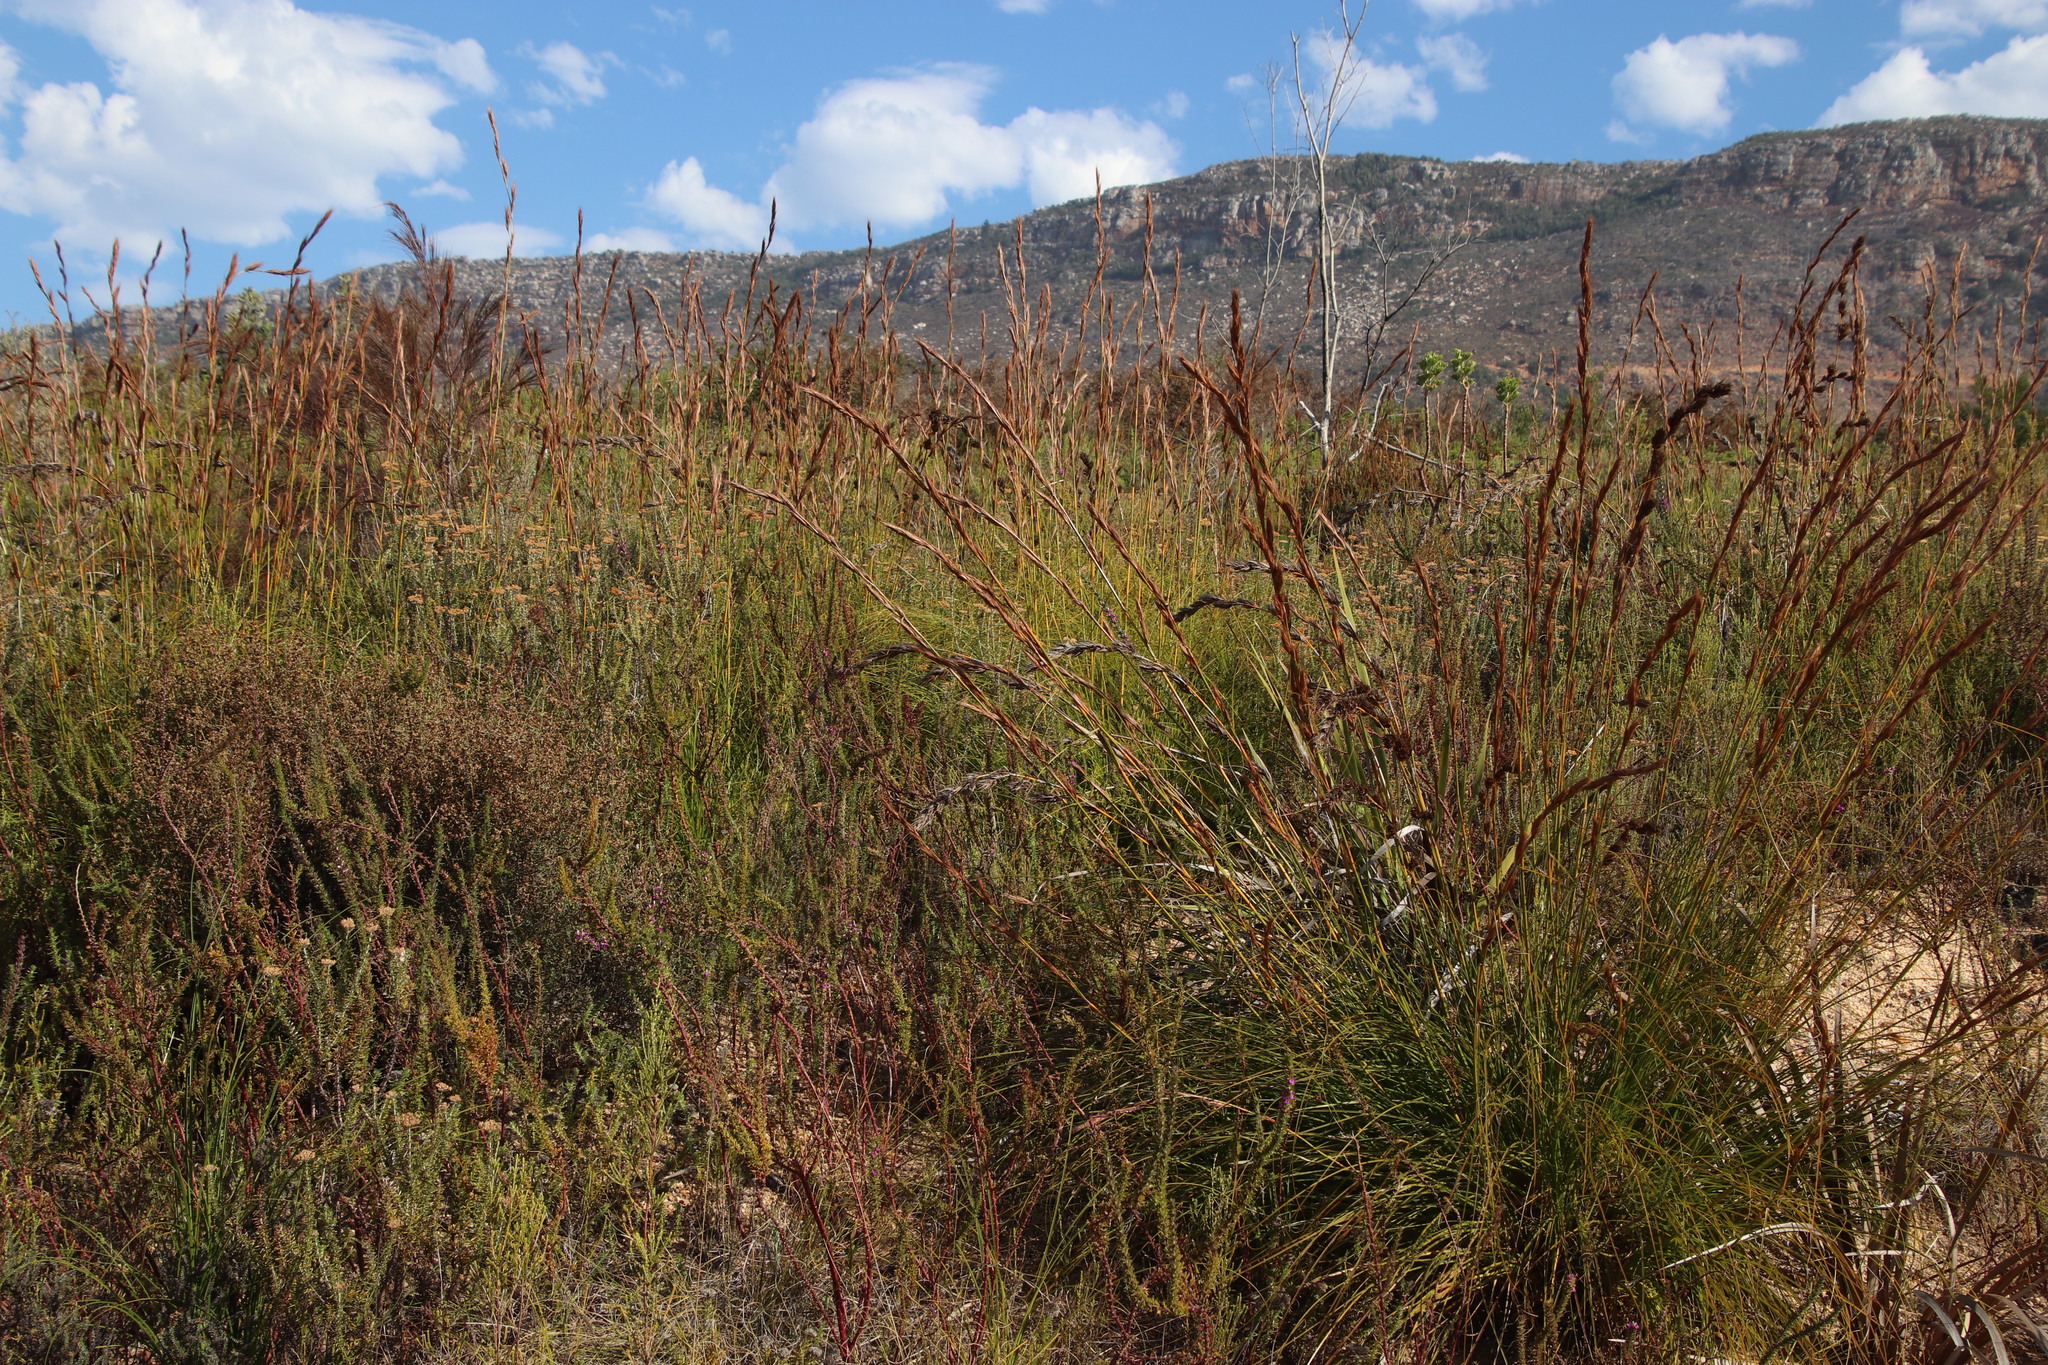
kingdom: Plantae
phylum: Tracheophyta
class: Liliopsida
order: Poales
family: Cyperaceae
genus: Tetraria
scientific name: Tetraria bromoides
